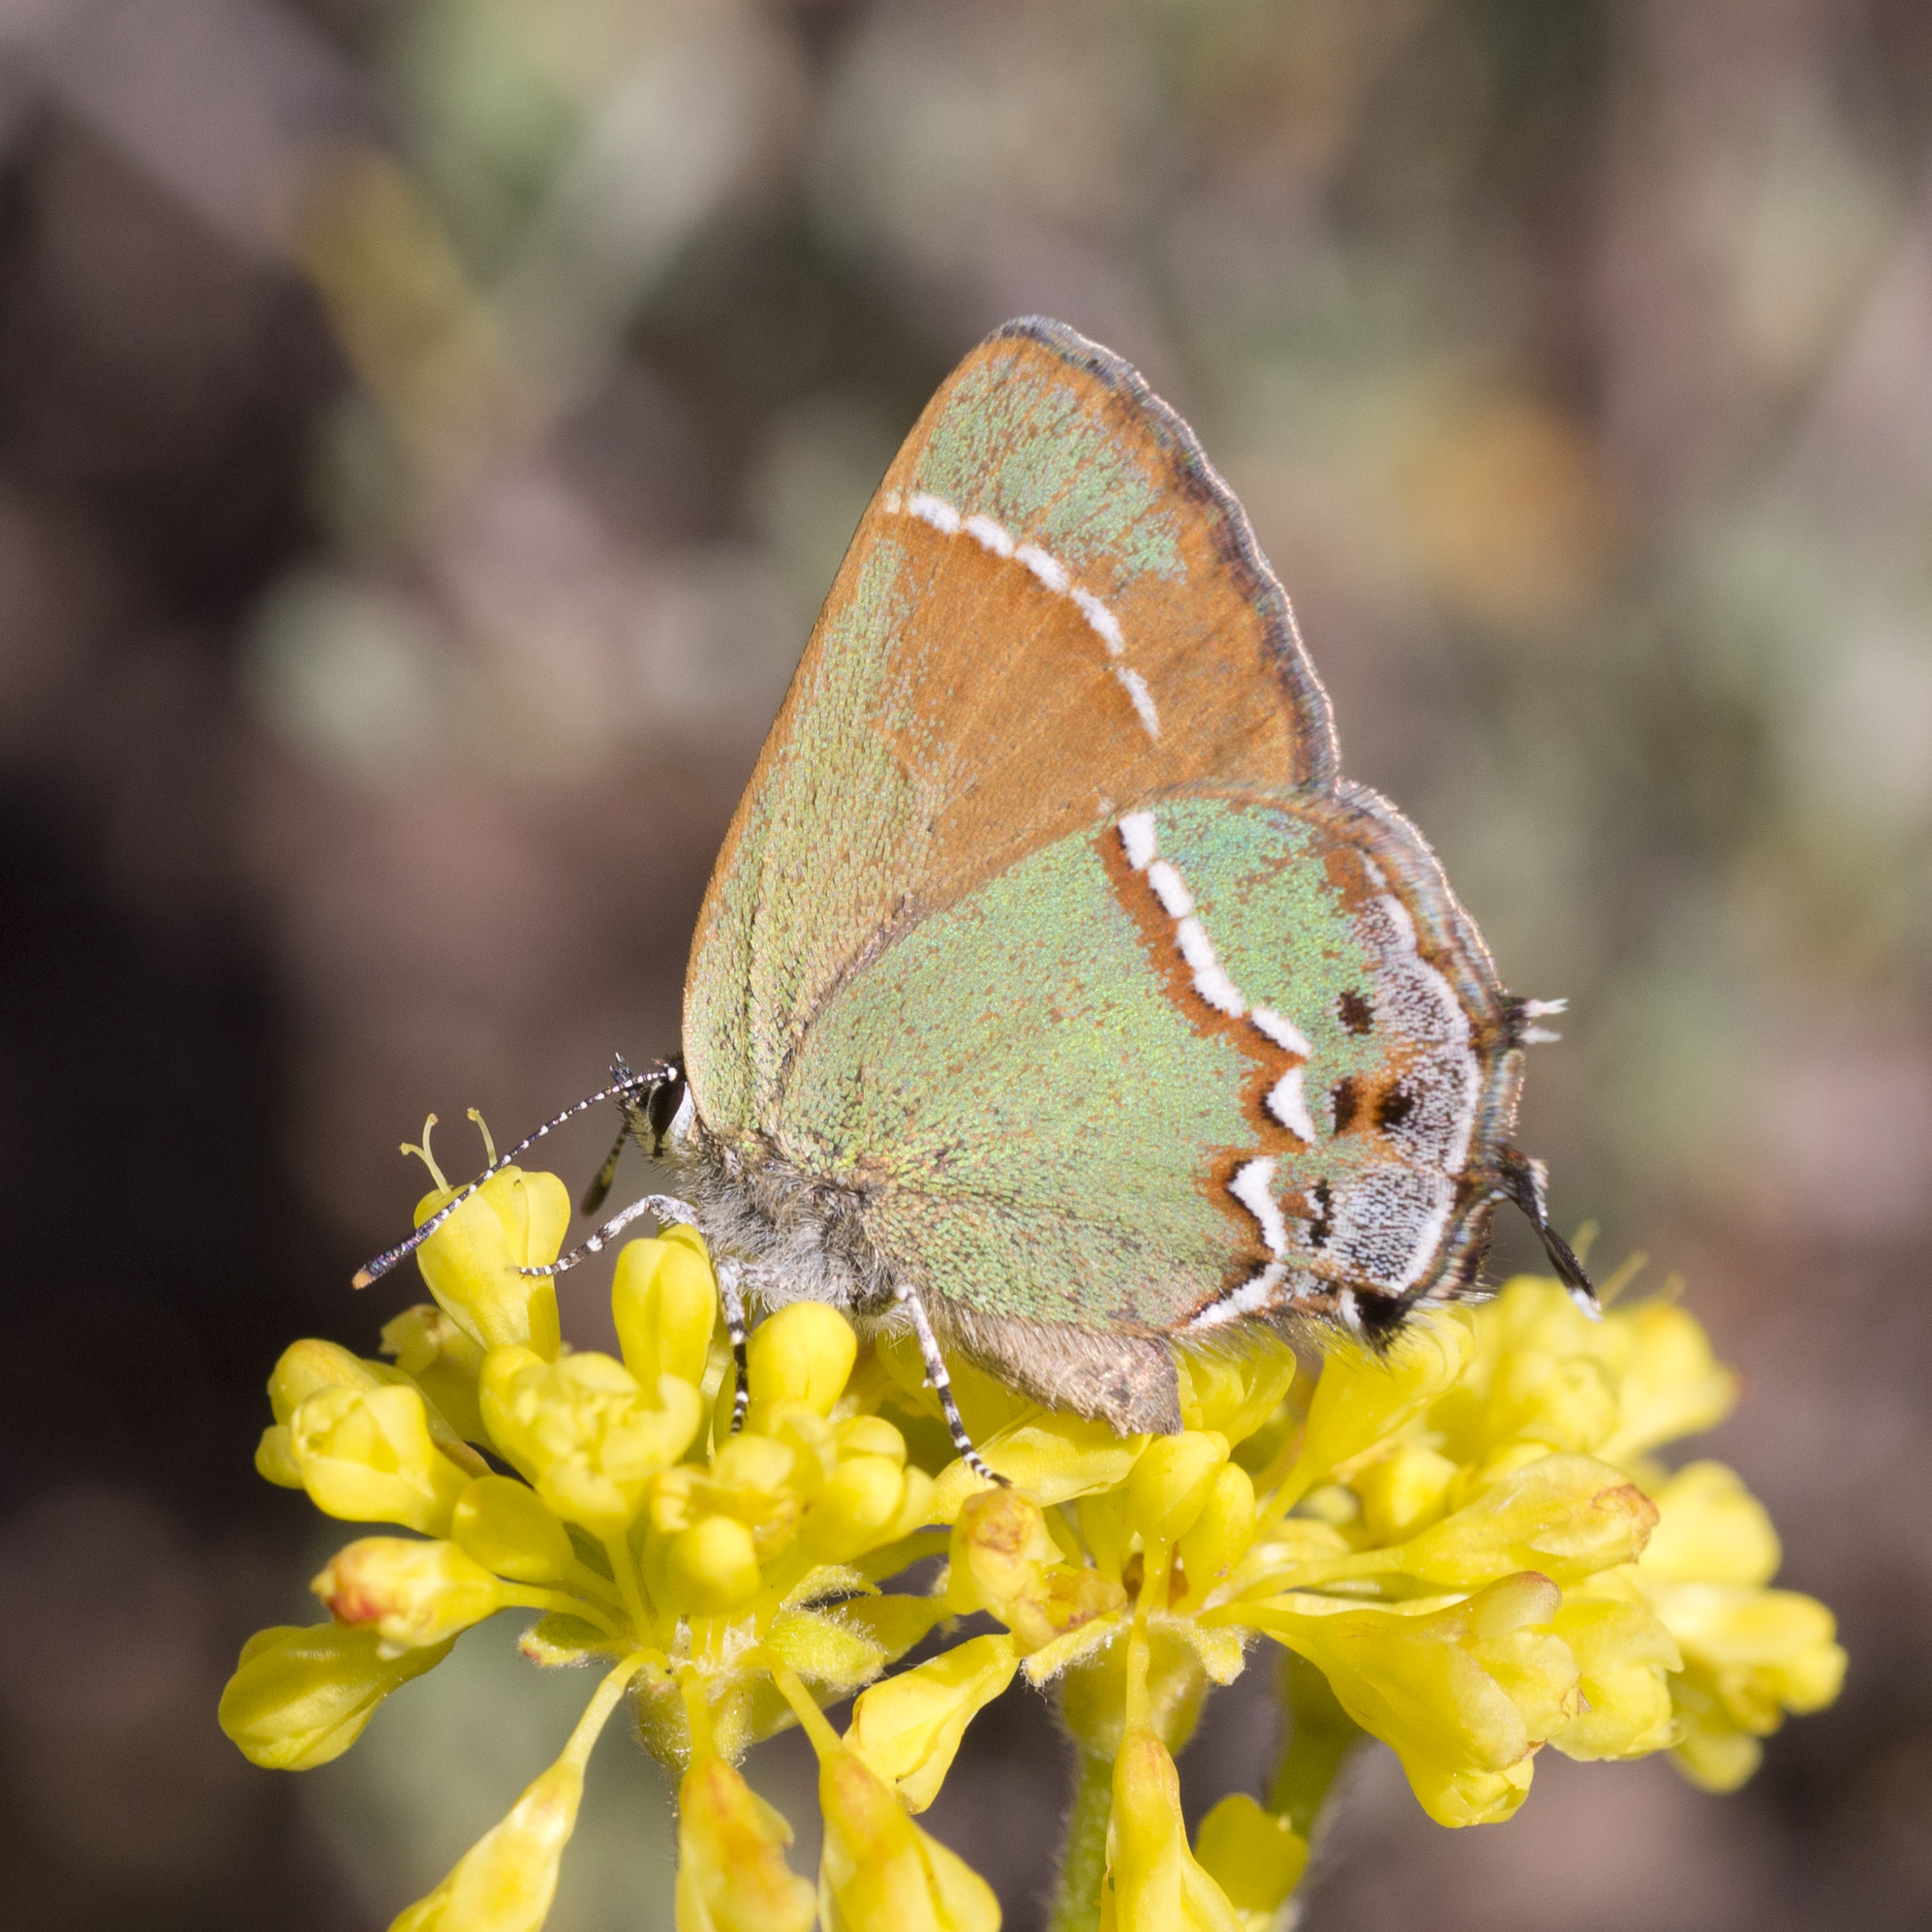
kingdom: Animalia
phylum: Arthropoda
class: Insecta
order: Lepidoptera
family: Lycaenidae
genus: Mitoura
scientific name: Mitoura siva
